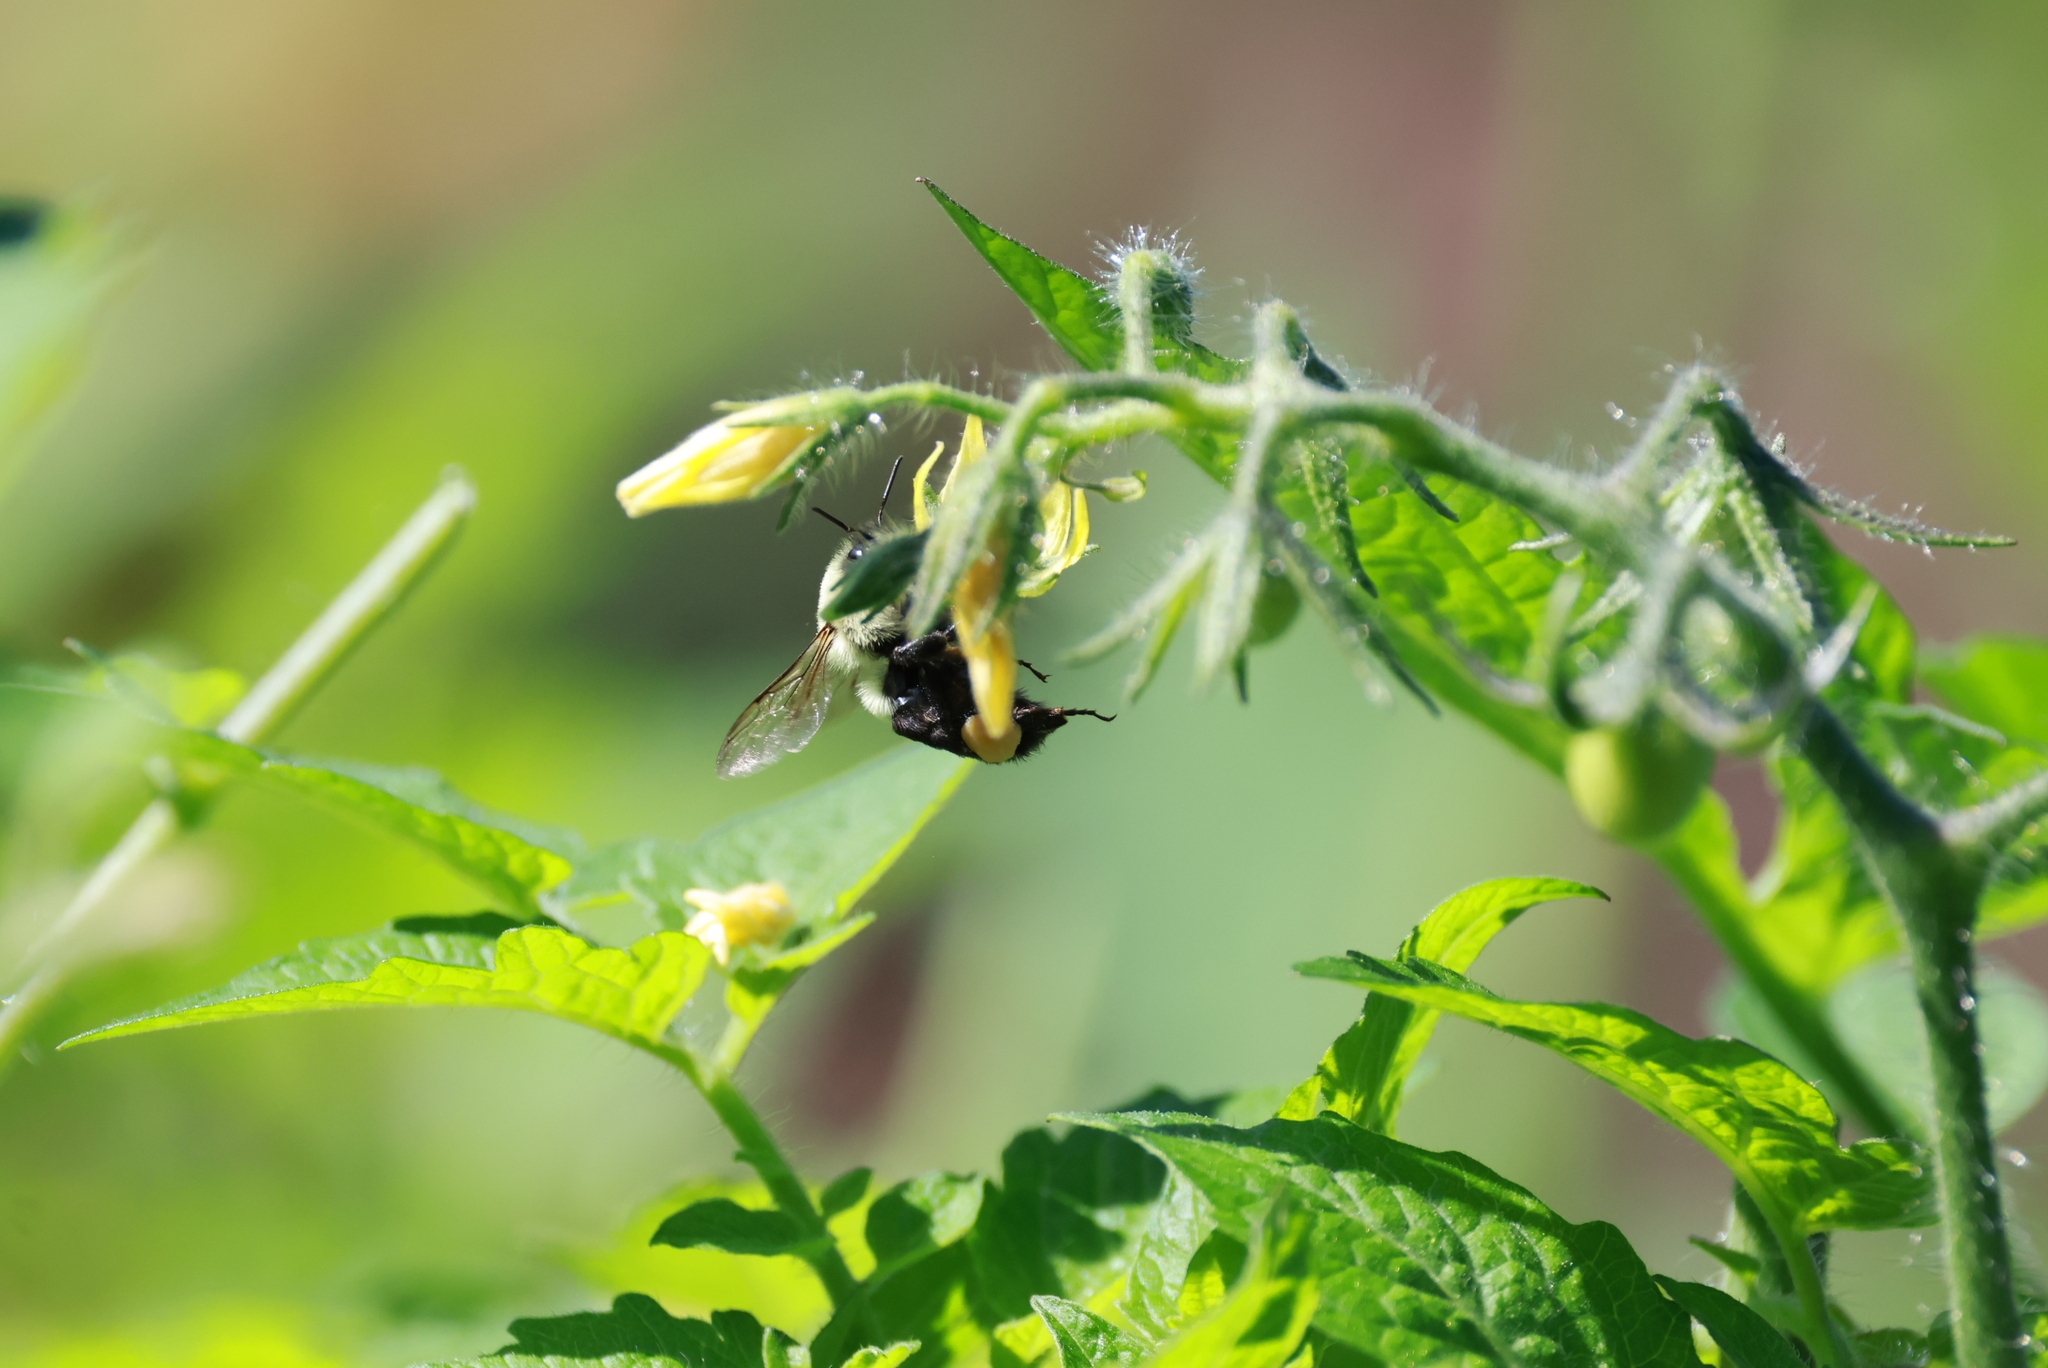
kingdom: Animalia
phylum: Arthropoda
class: Insecta
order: Hymenoptera
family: Apidae
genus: Bombus
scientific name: Bombus impatiens
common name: Common eastern bumble bee
